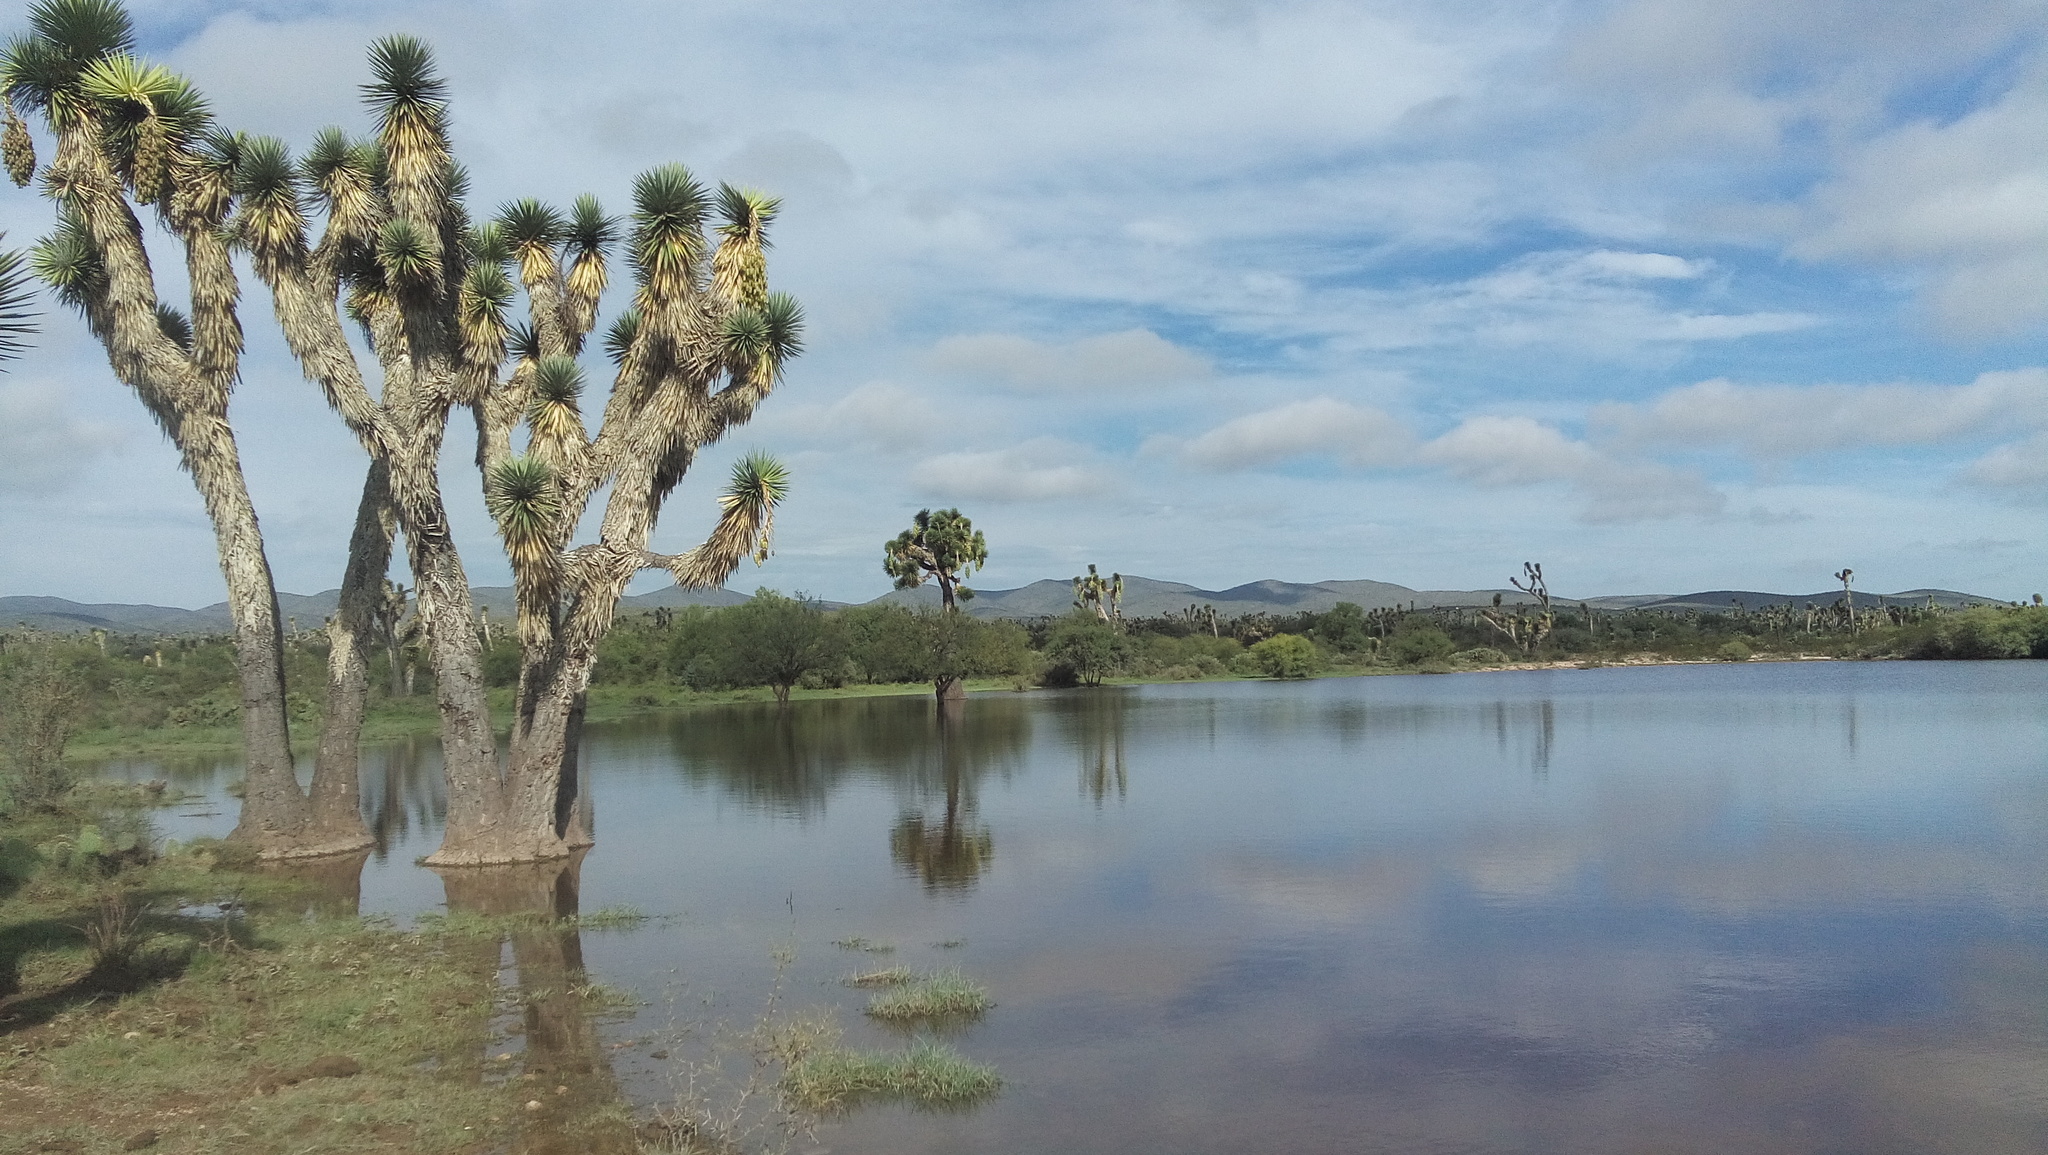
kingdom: Plantae
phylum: Tracheophyta
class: Liliopsida
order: Asparagales
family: Asparagaceae
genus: Yucca
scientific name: Yucca filifera
